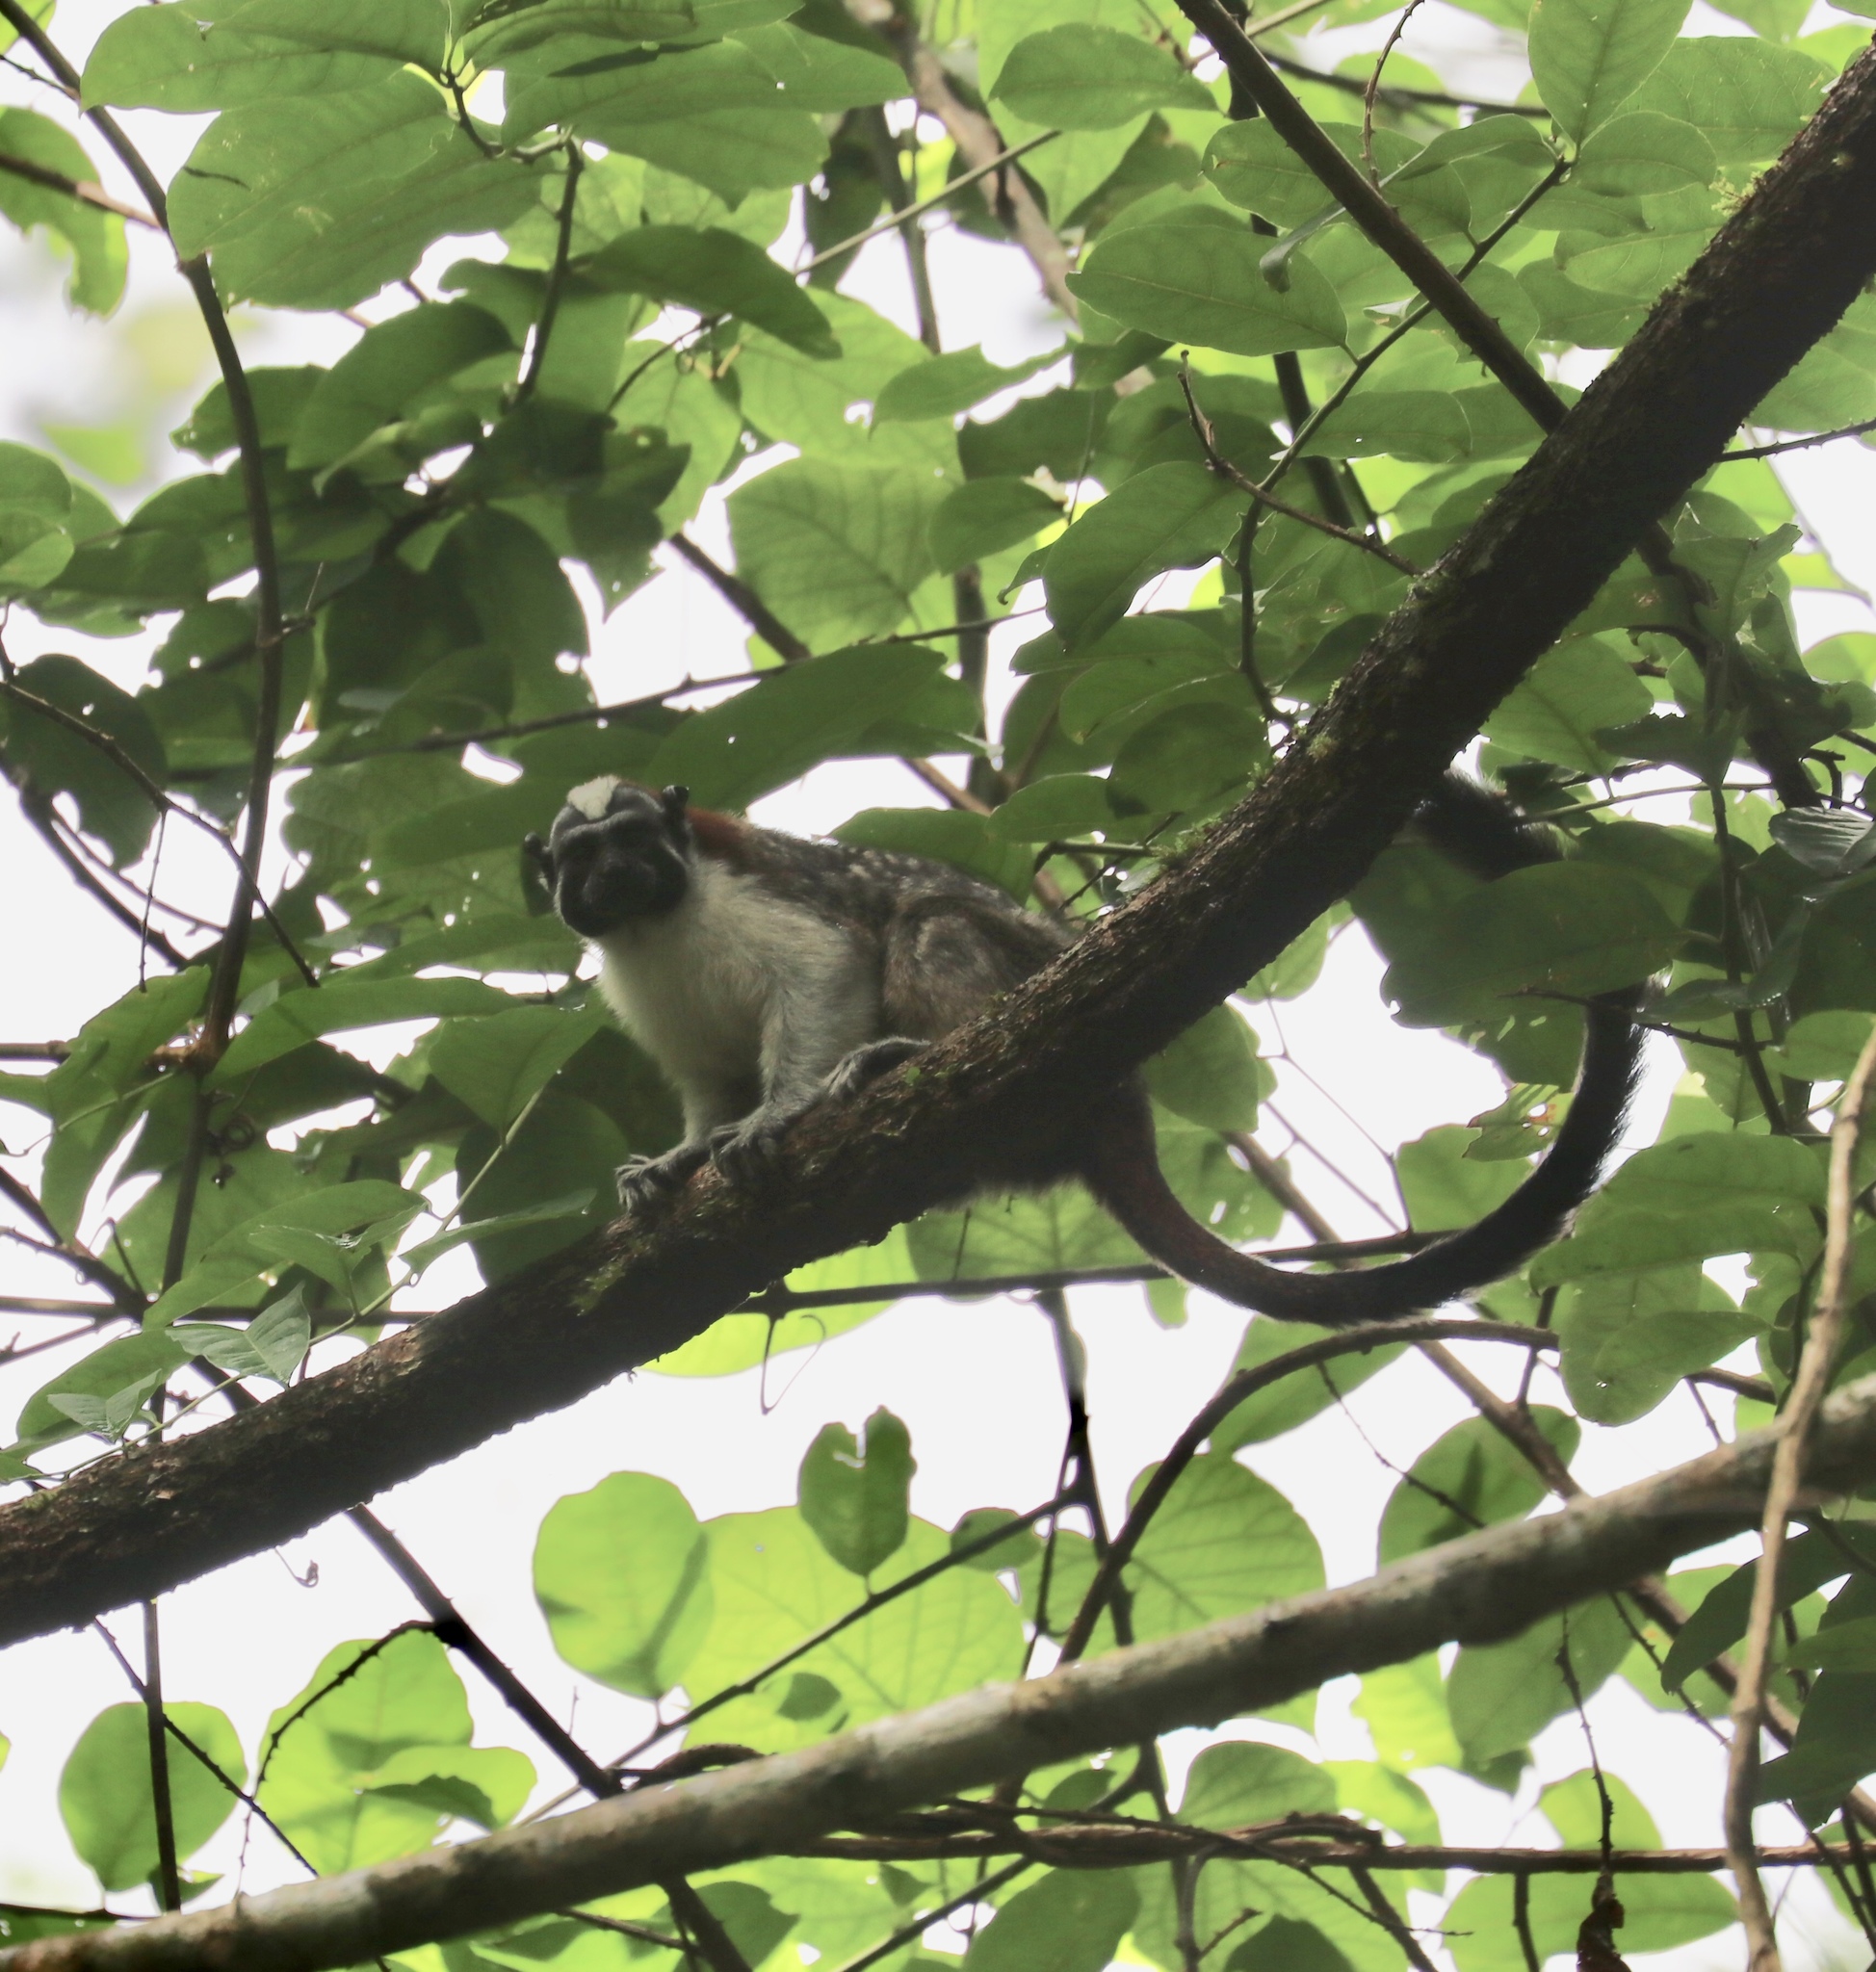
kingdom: Animalia
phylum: Chordata
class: Mammalia
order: Primates
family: Callitrichidae
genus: Saguinus
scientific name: Saguinus geoffroyi
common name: Geoffroy s tamarin
